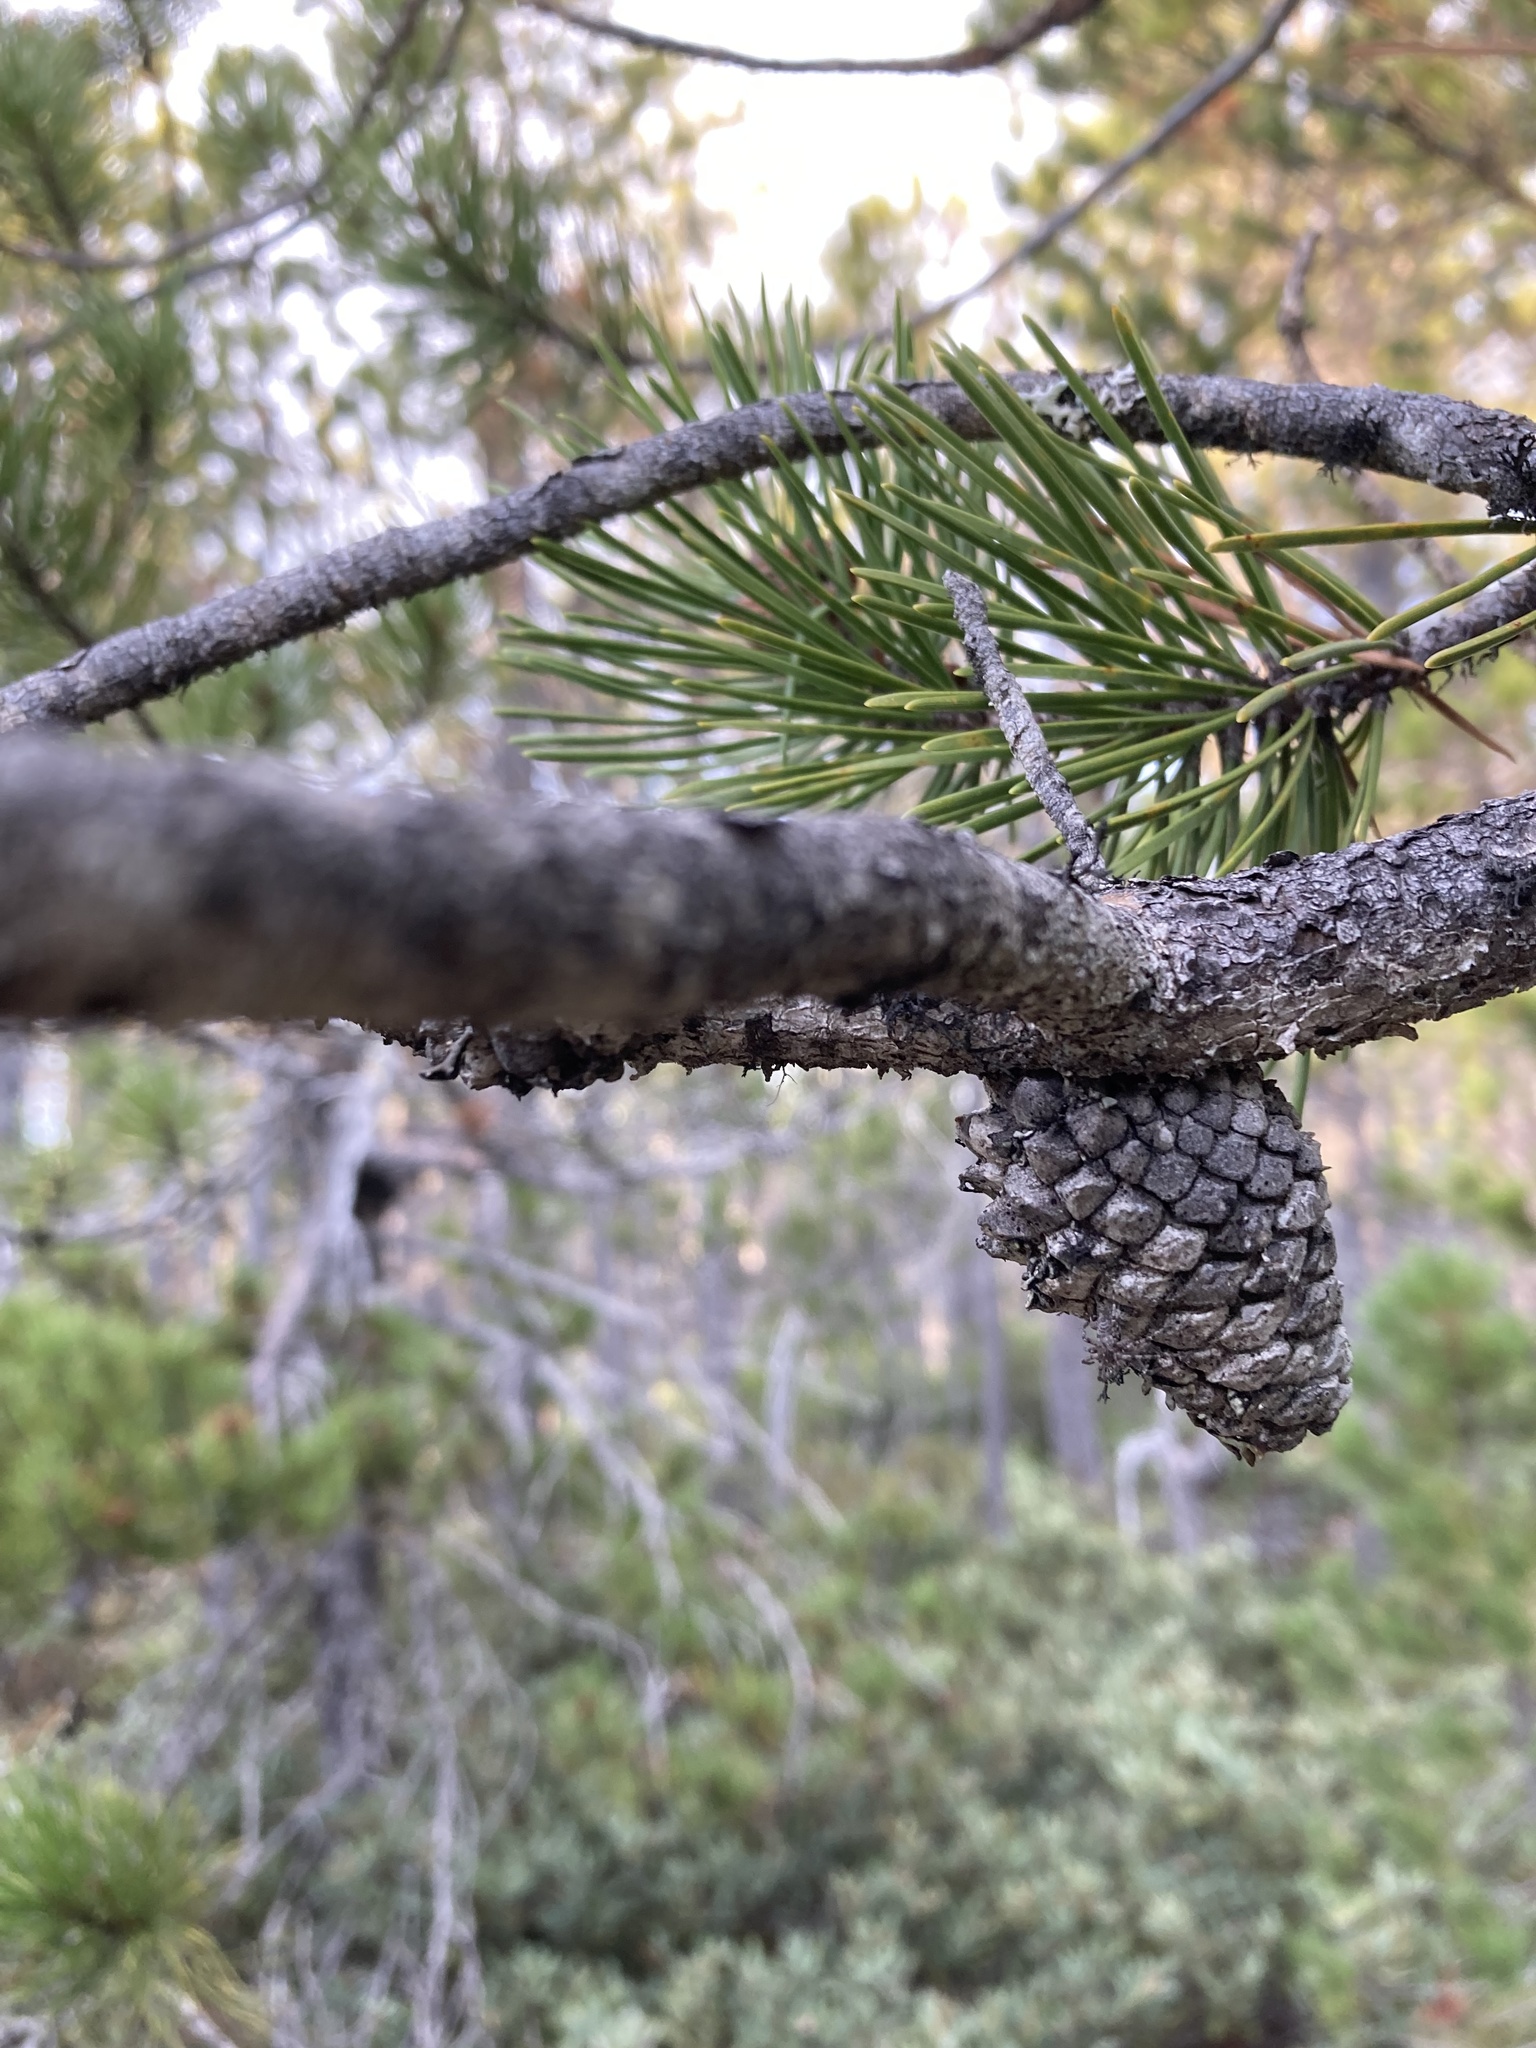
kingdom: Plantae
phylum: Tracheophyta
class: Pinopsida
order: Pinales
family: Pinaceae
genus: Pinus
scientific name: Pinus contorta
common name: Lodgepole pine
